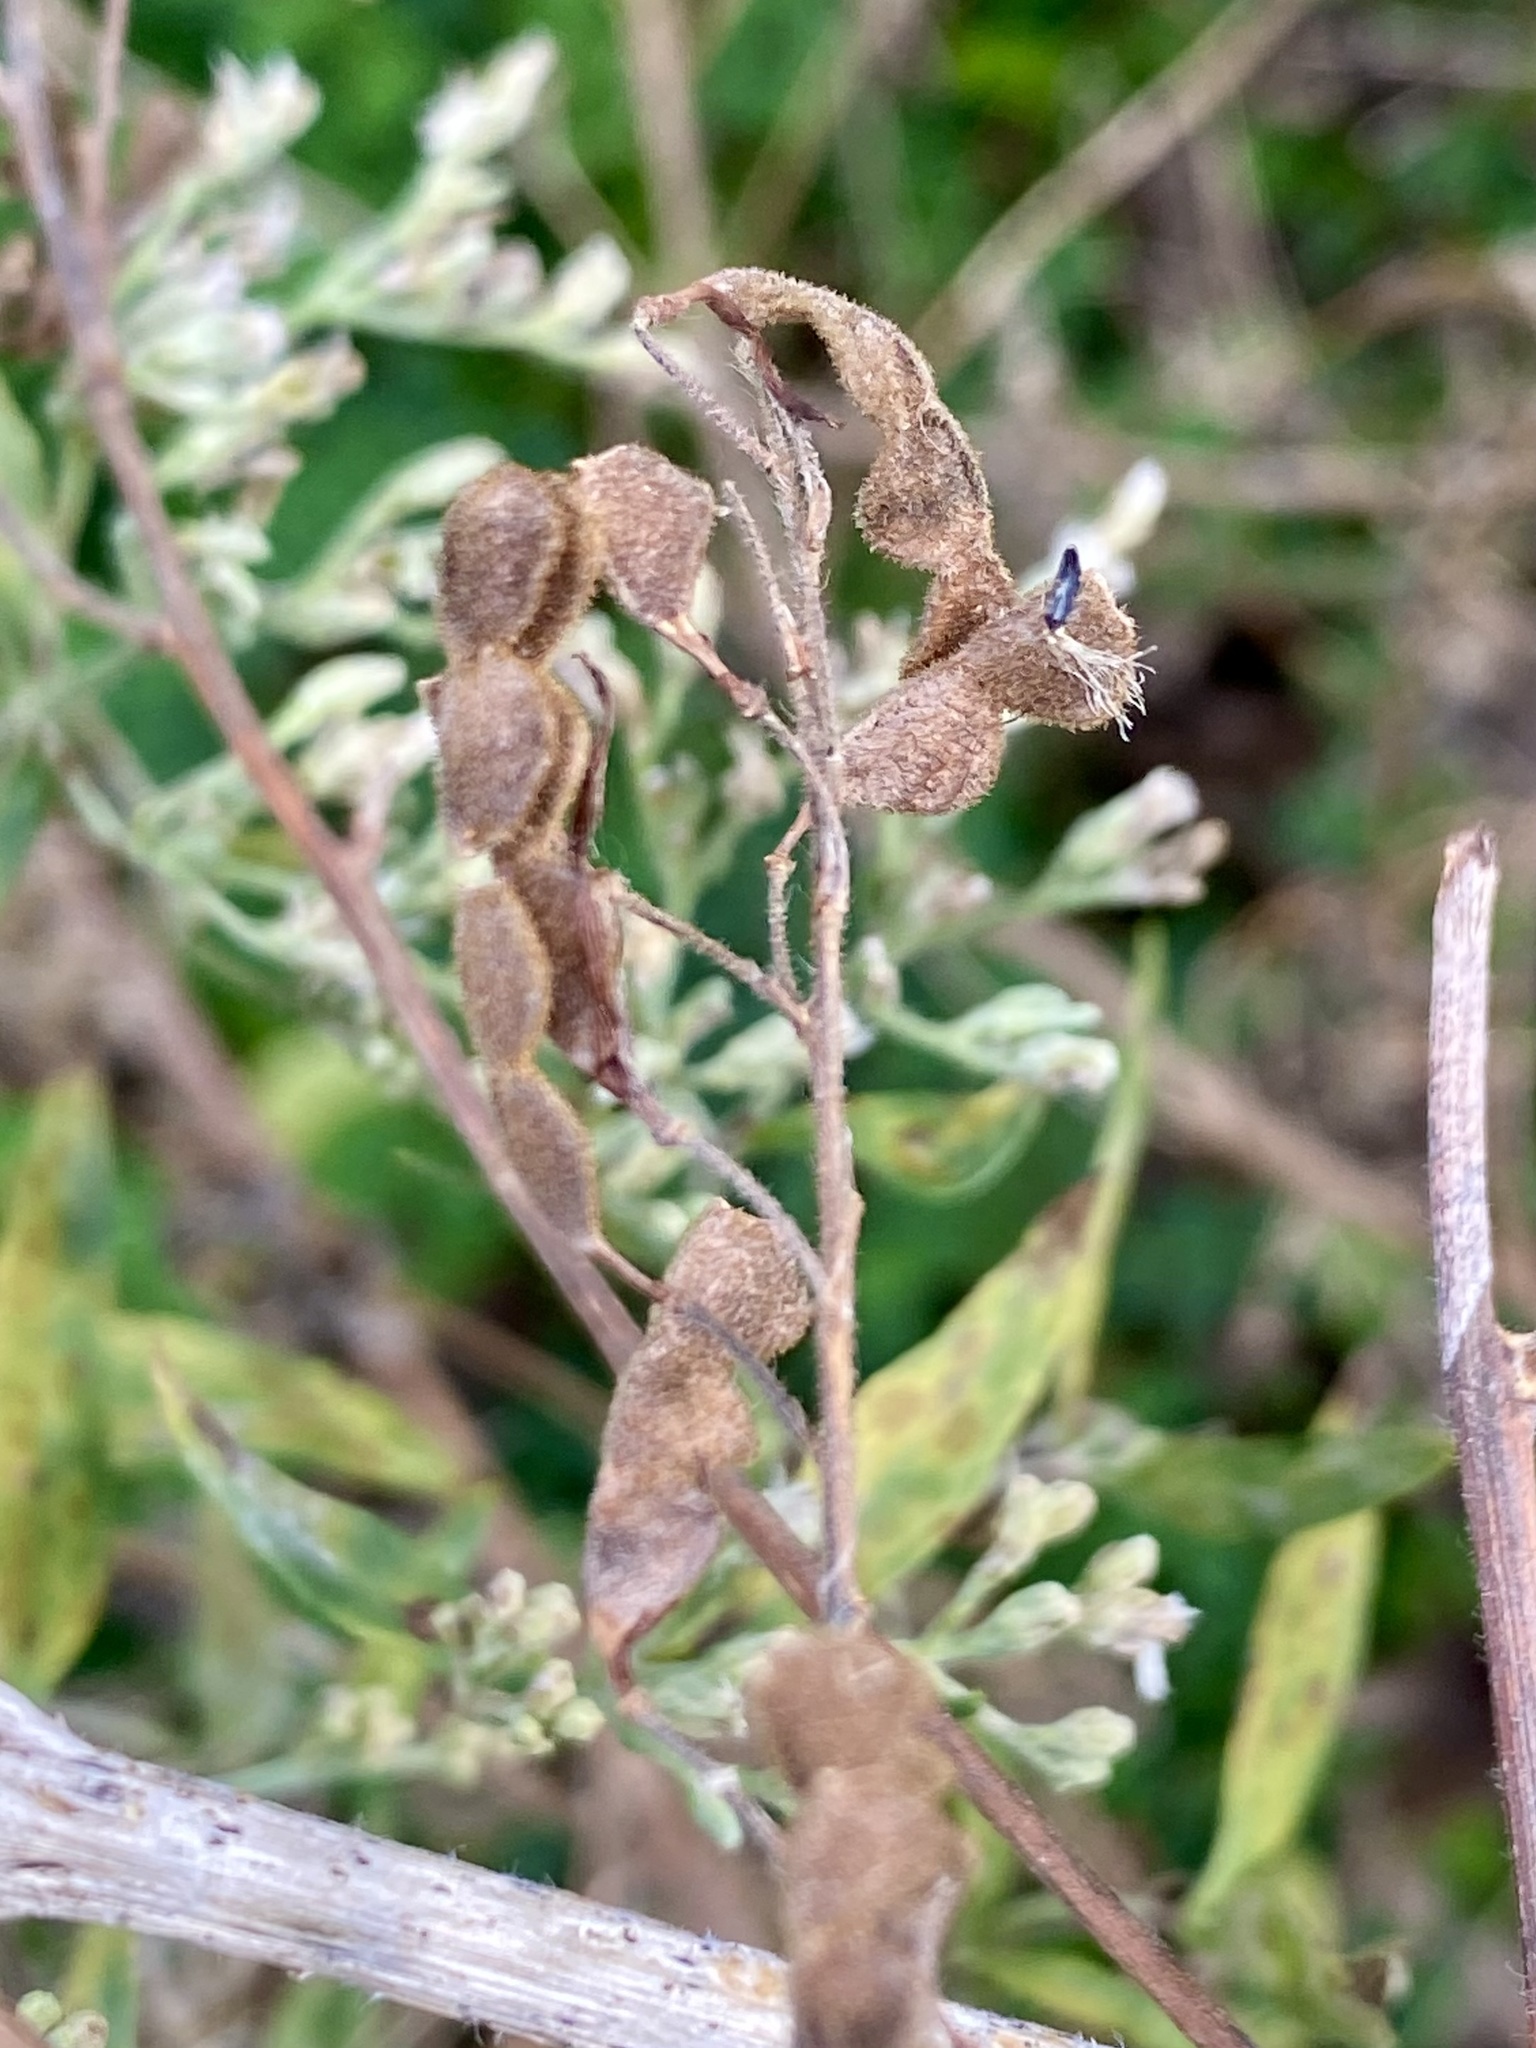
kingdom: Plantae
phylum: Tracheophyta
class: Magnoliopsida
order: Fabales
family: Fabaceae
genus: Desmodium
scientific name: Desmodium canadense
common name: Canada tick-trefoil
